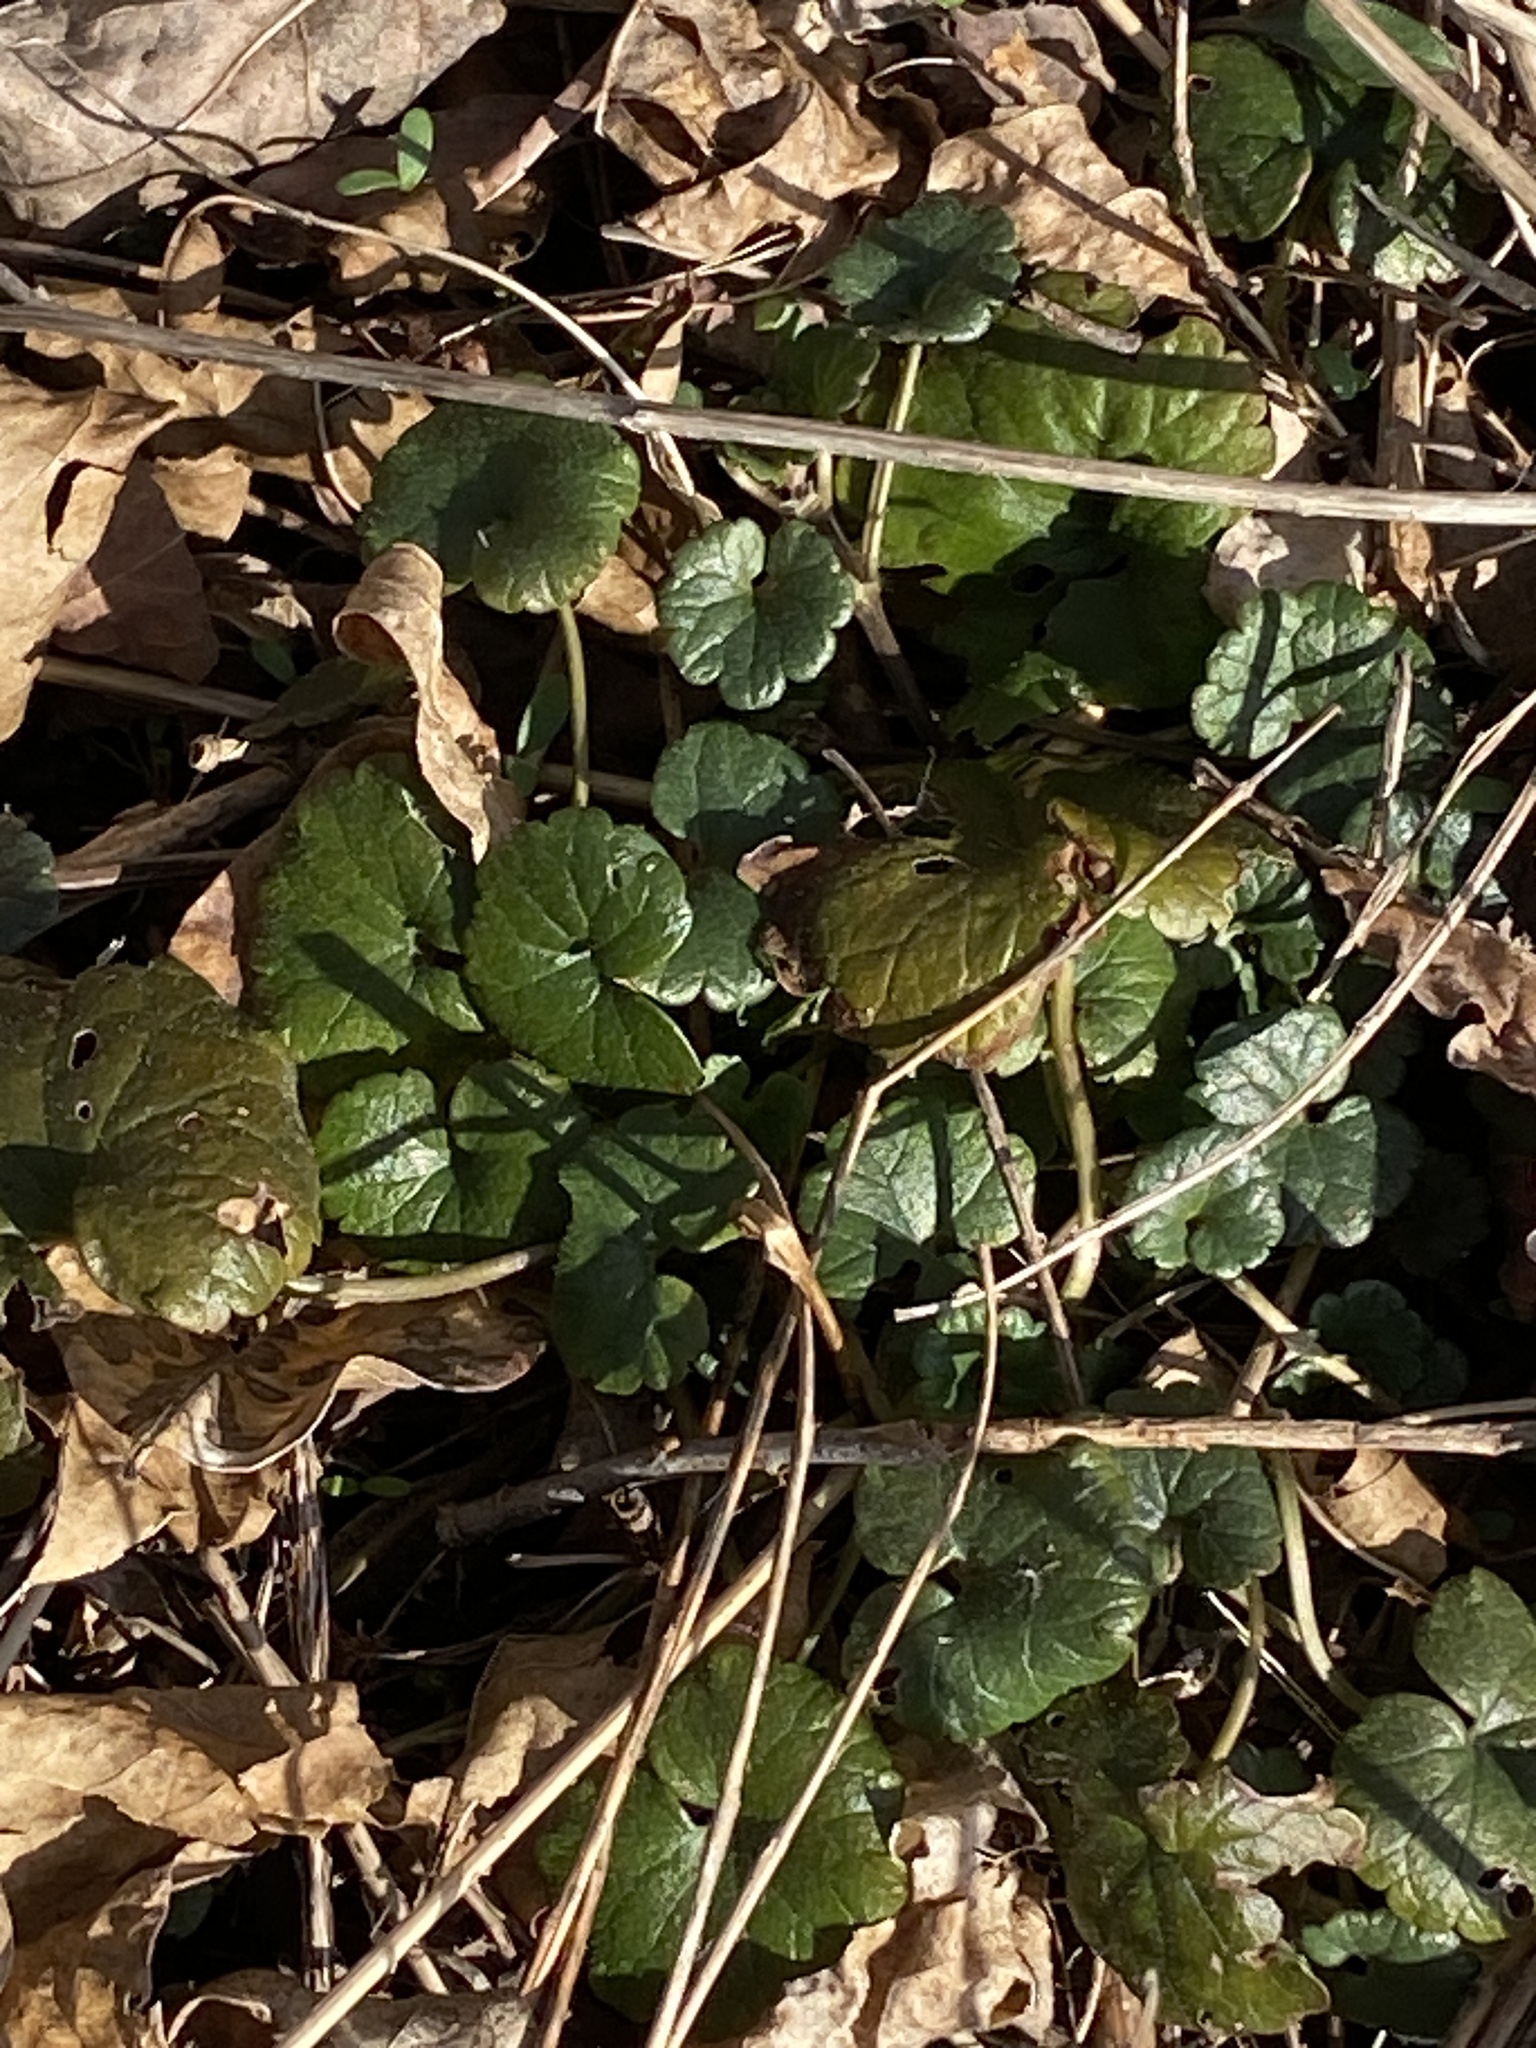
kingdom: Plantae
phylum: Tracheophyta
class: Magnoliopsida
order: Lamiales
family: Lamiaceae
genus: Glechoma
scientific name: Glechoma hederacea
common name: Ground ivy
